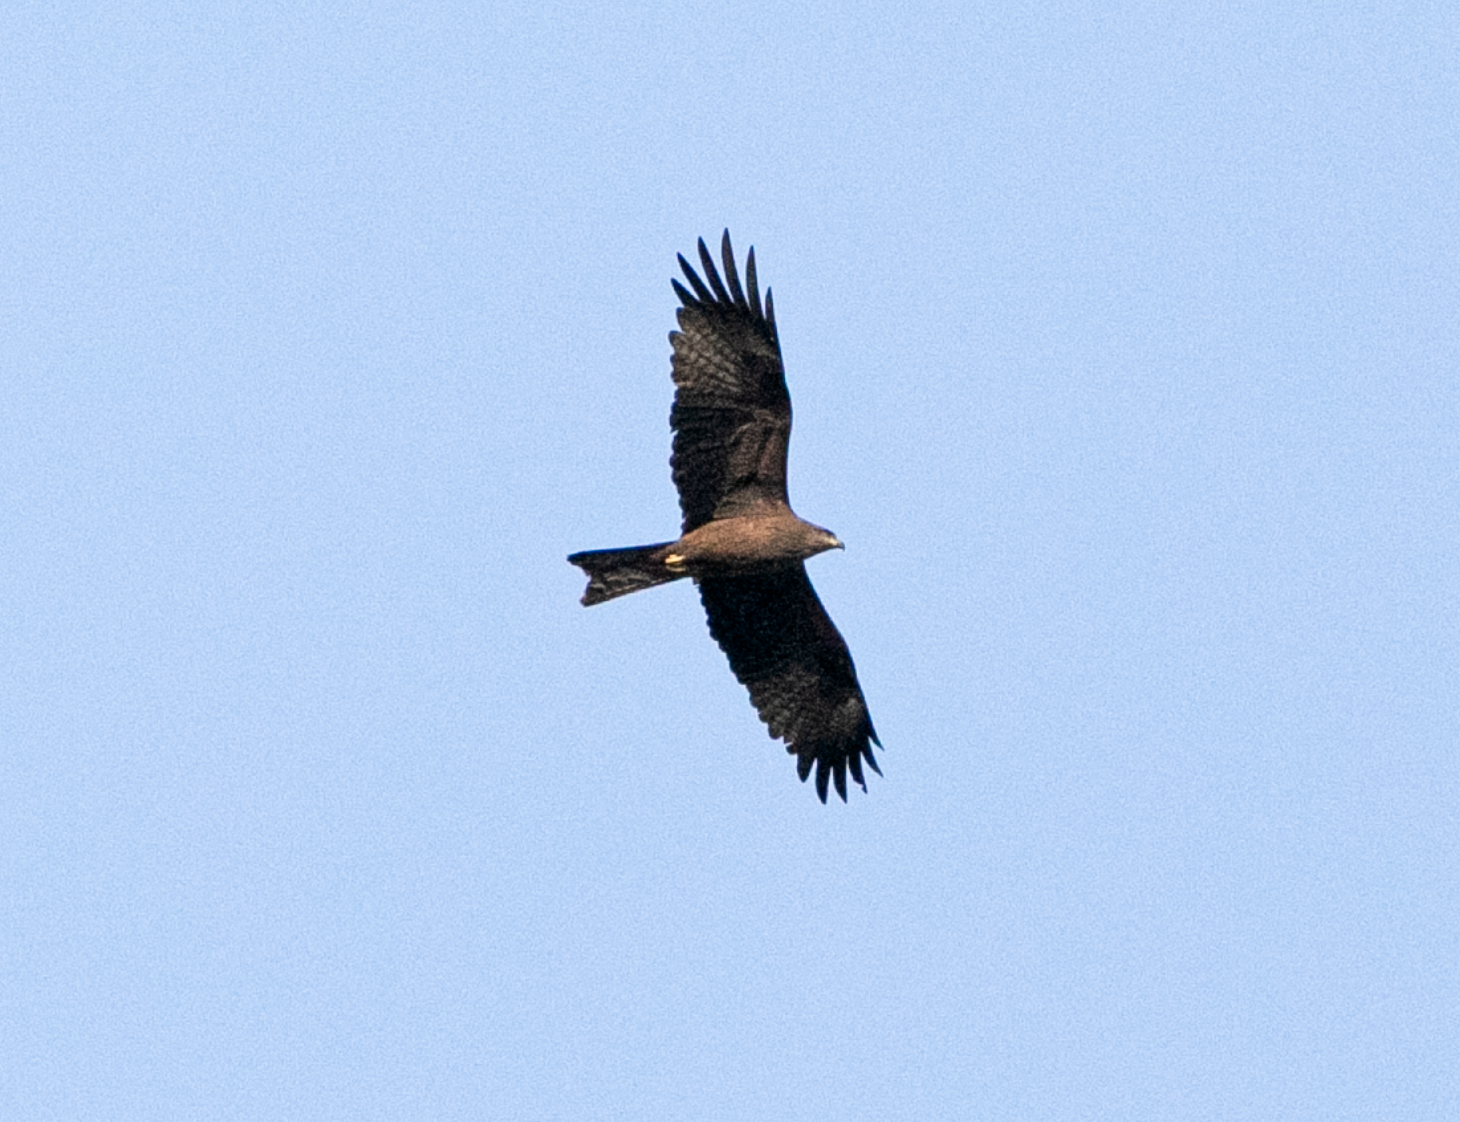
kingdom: Animalia
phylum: Chordata
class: Aves
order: Accipitriformes
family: Accipitridae
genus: Milvus
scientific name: Milvus migrans
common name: Black kite
